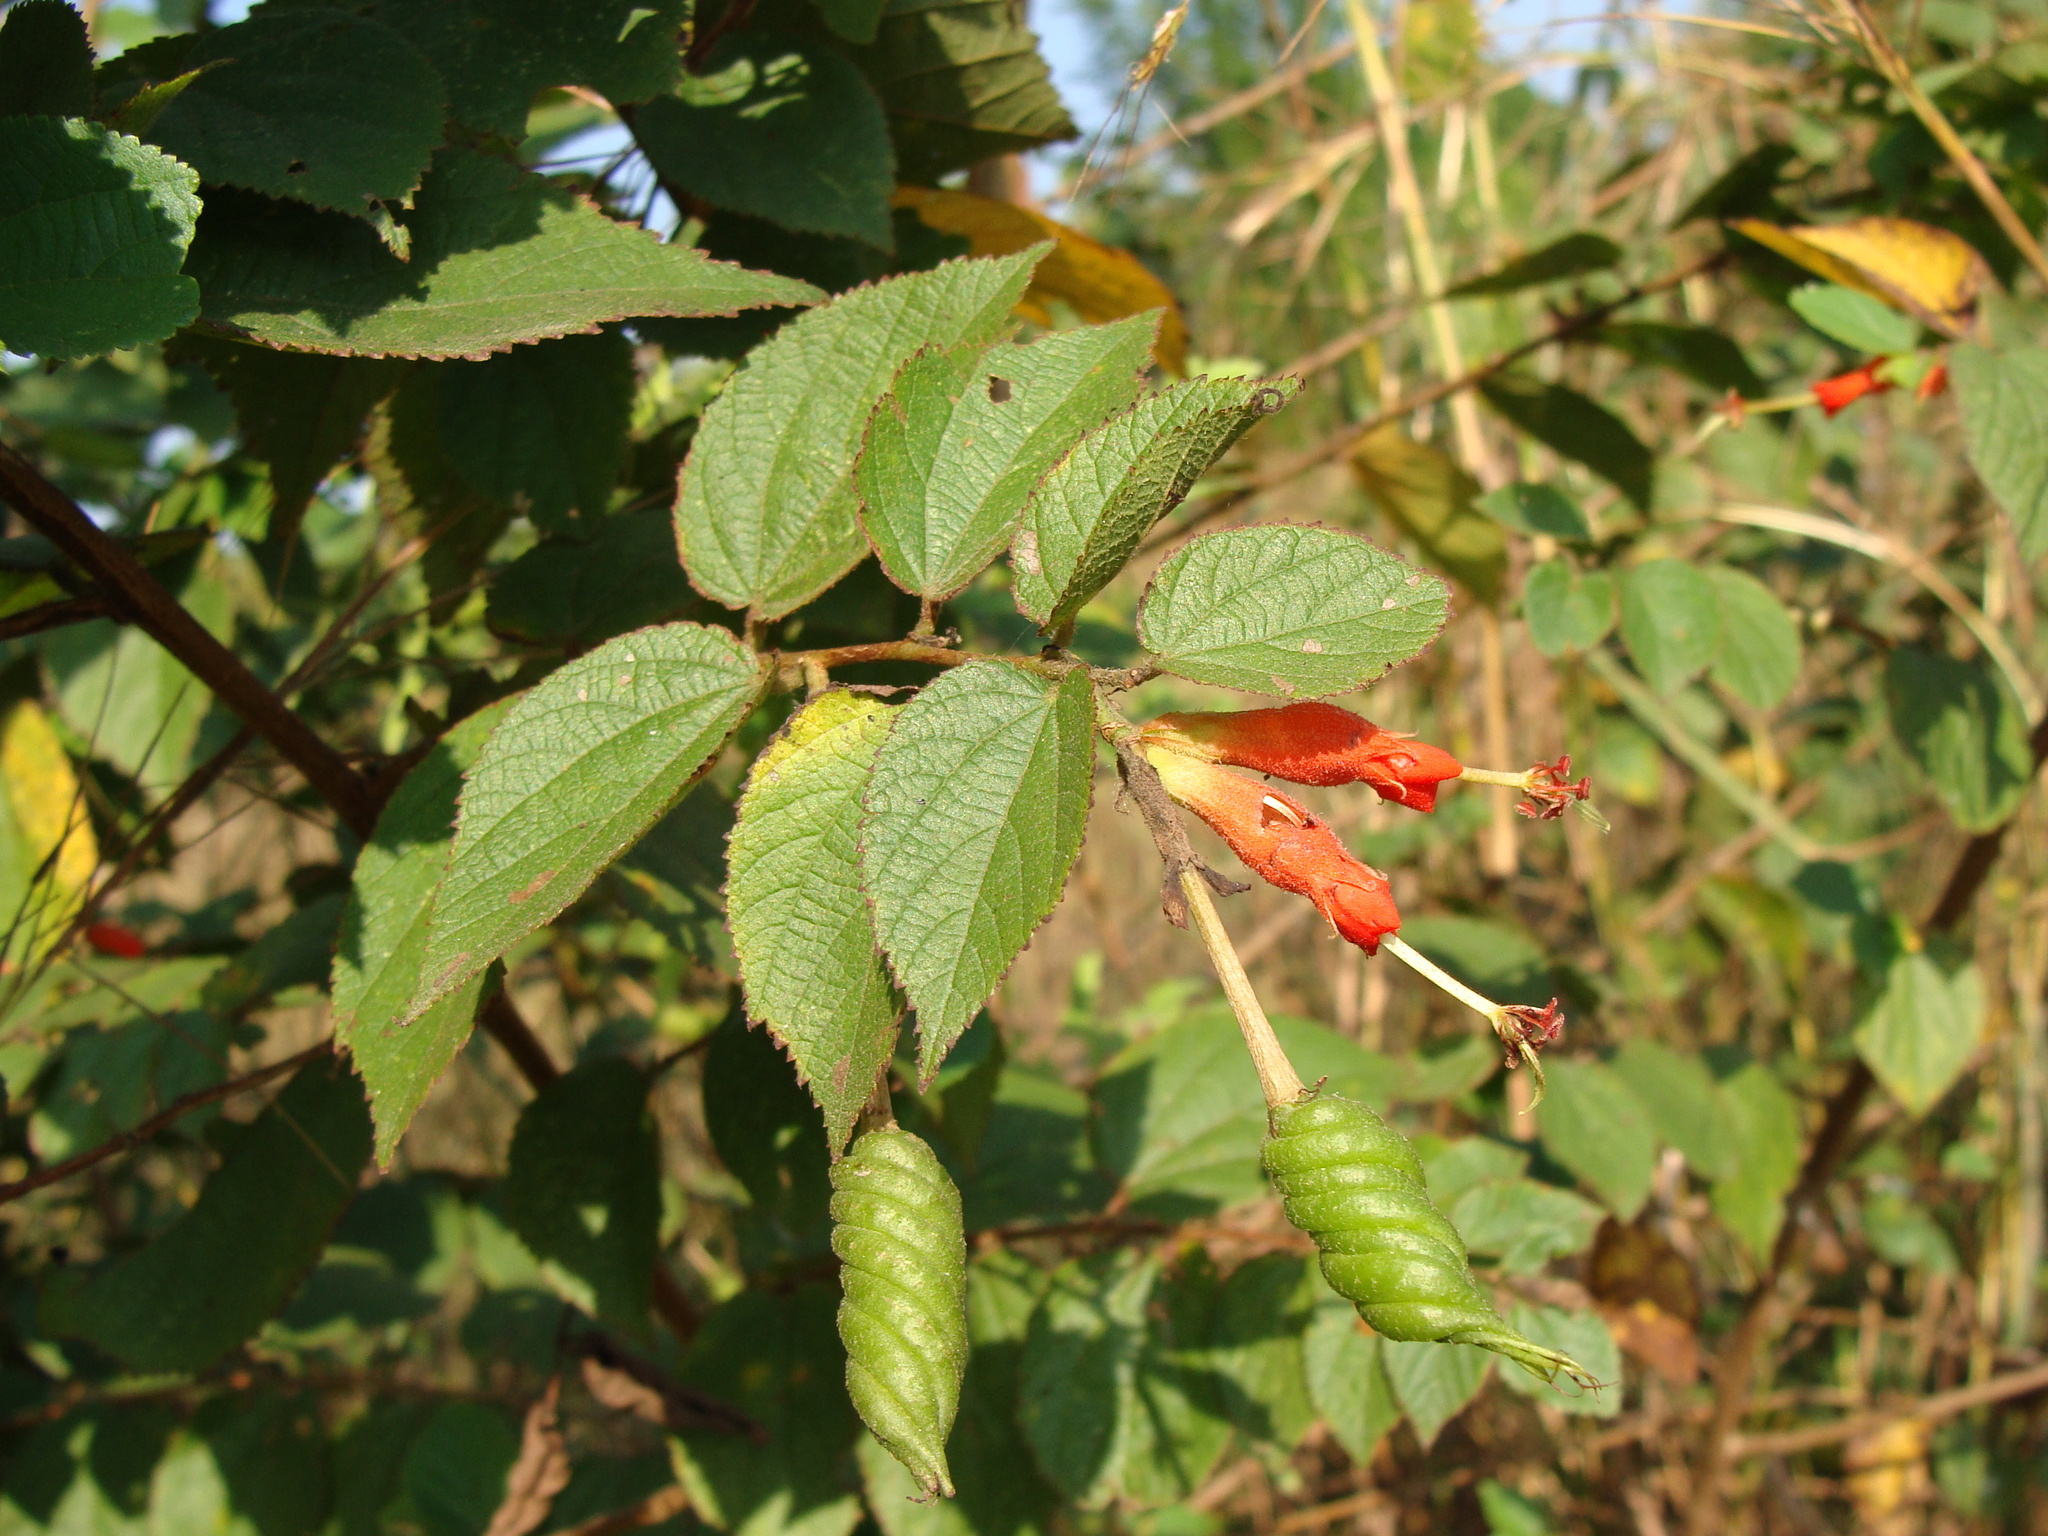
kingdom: Plantae
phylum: Tracheophyta
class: Magnoliopsida
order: Malvales
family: Malvaceae
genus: Helicteres
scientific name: Helicteres guazumifolia
